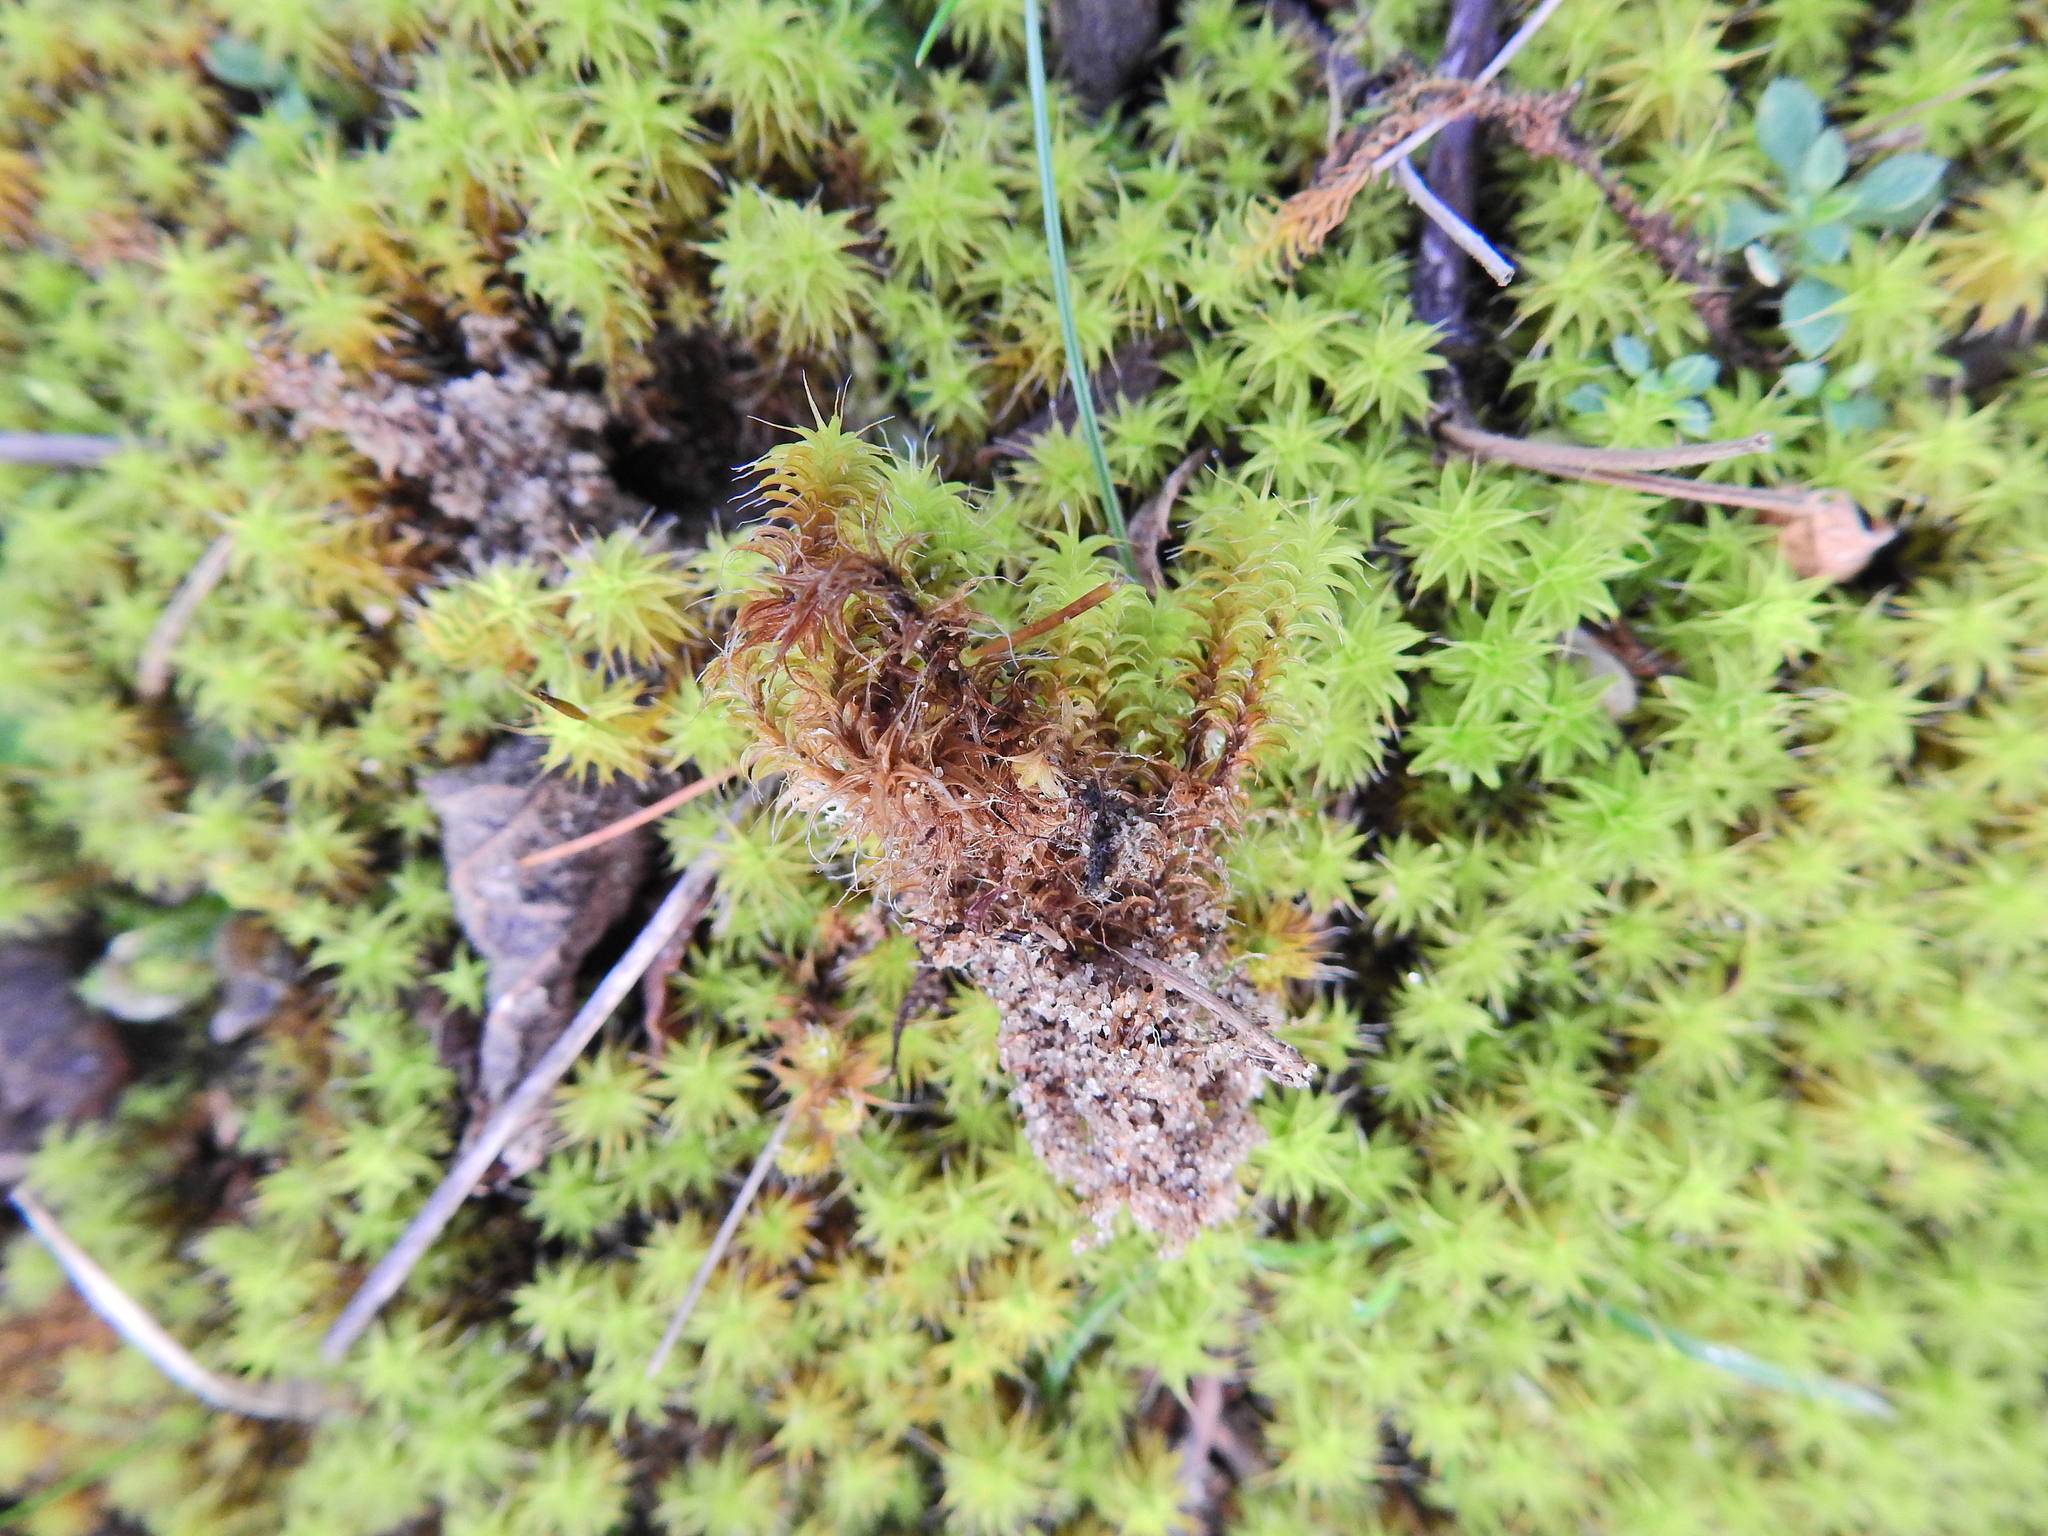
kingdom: Plantae
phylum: Bryophyta
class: Bryopsida
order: Pottiales
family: Pottiaceae
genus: Syntrichia
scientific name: Syntrichia ruralis
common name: Sidewalk screw moss
